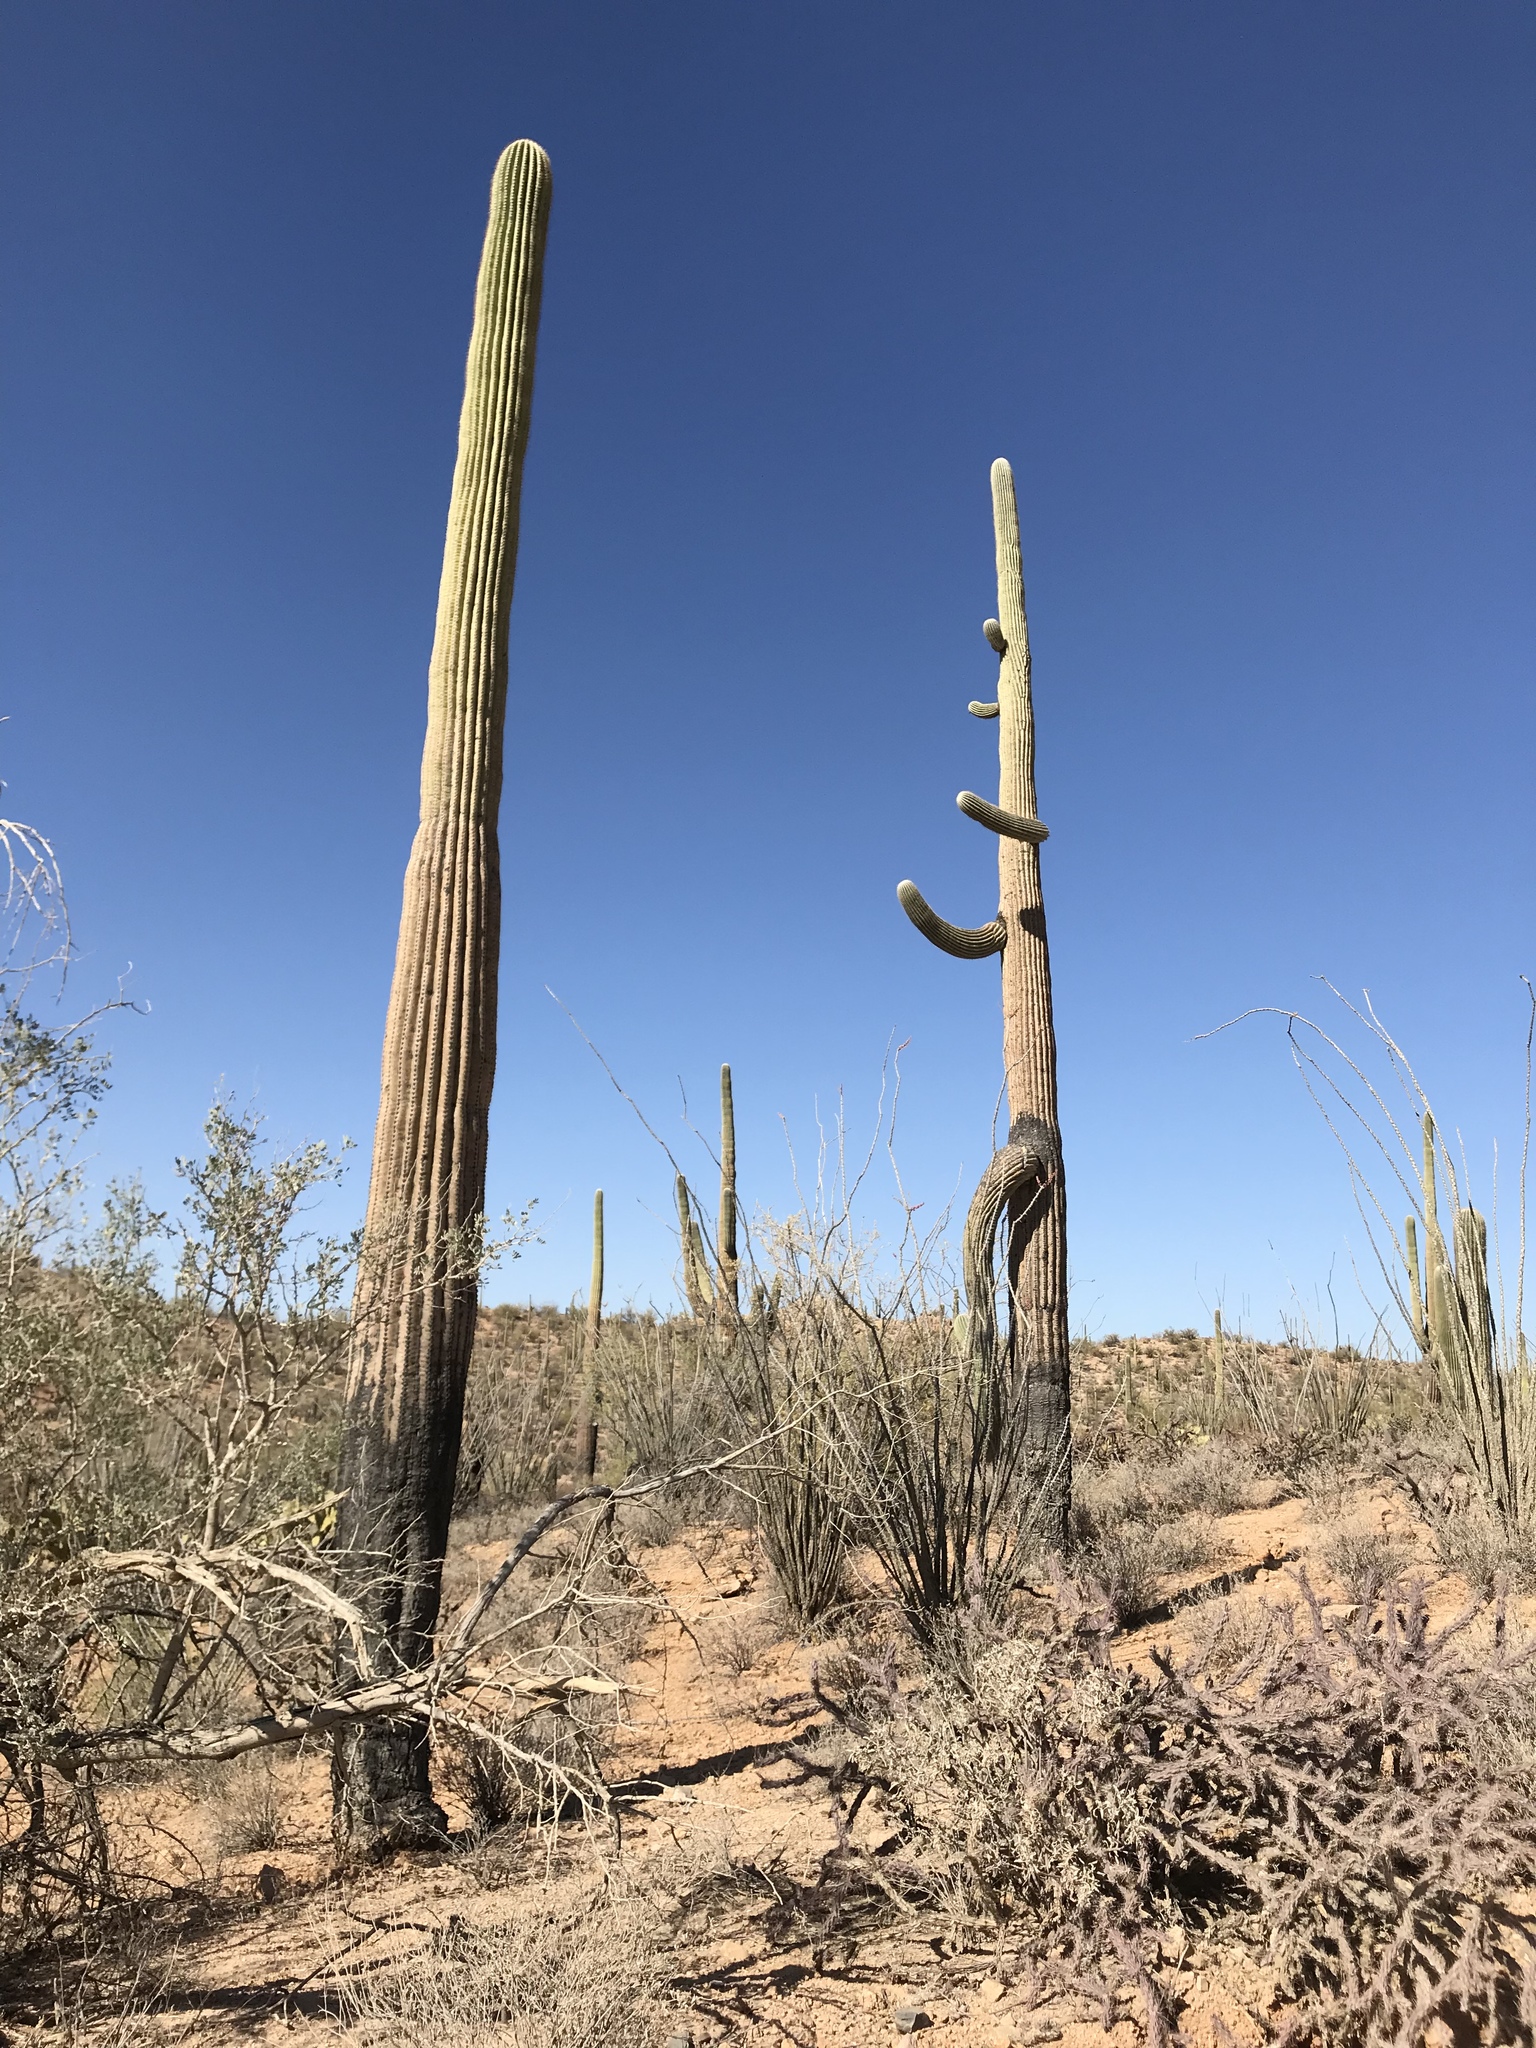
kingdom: Plantae
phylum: Tracheophyta
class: Magnoliopsida
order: Caryophyllales
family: Cactaceae
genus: Carnegiea
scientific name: Carnegiea gigantea
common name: Saguaro
